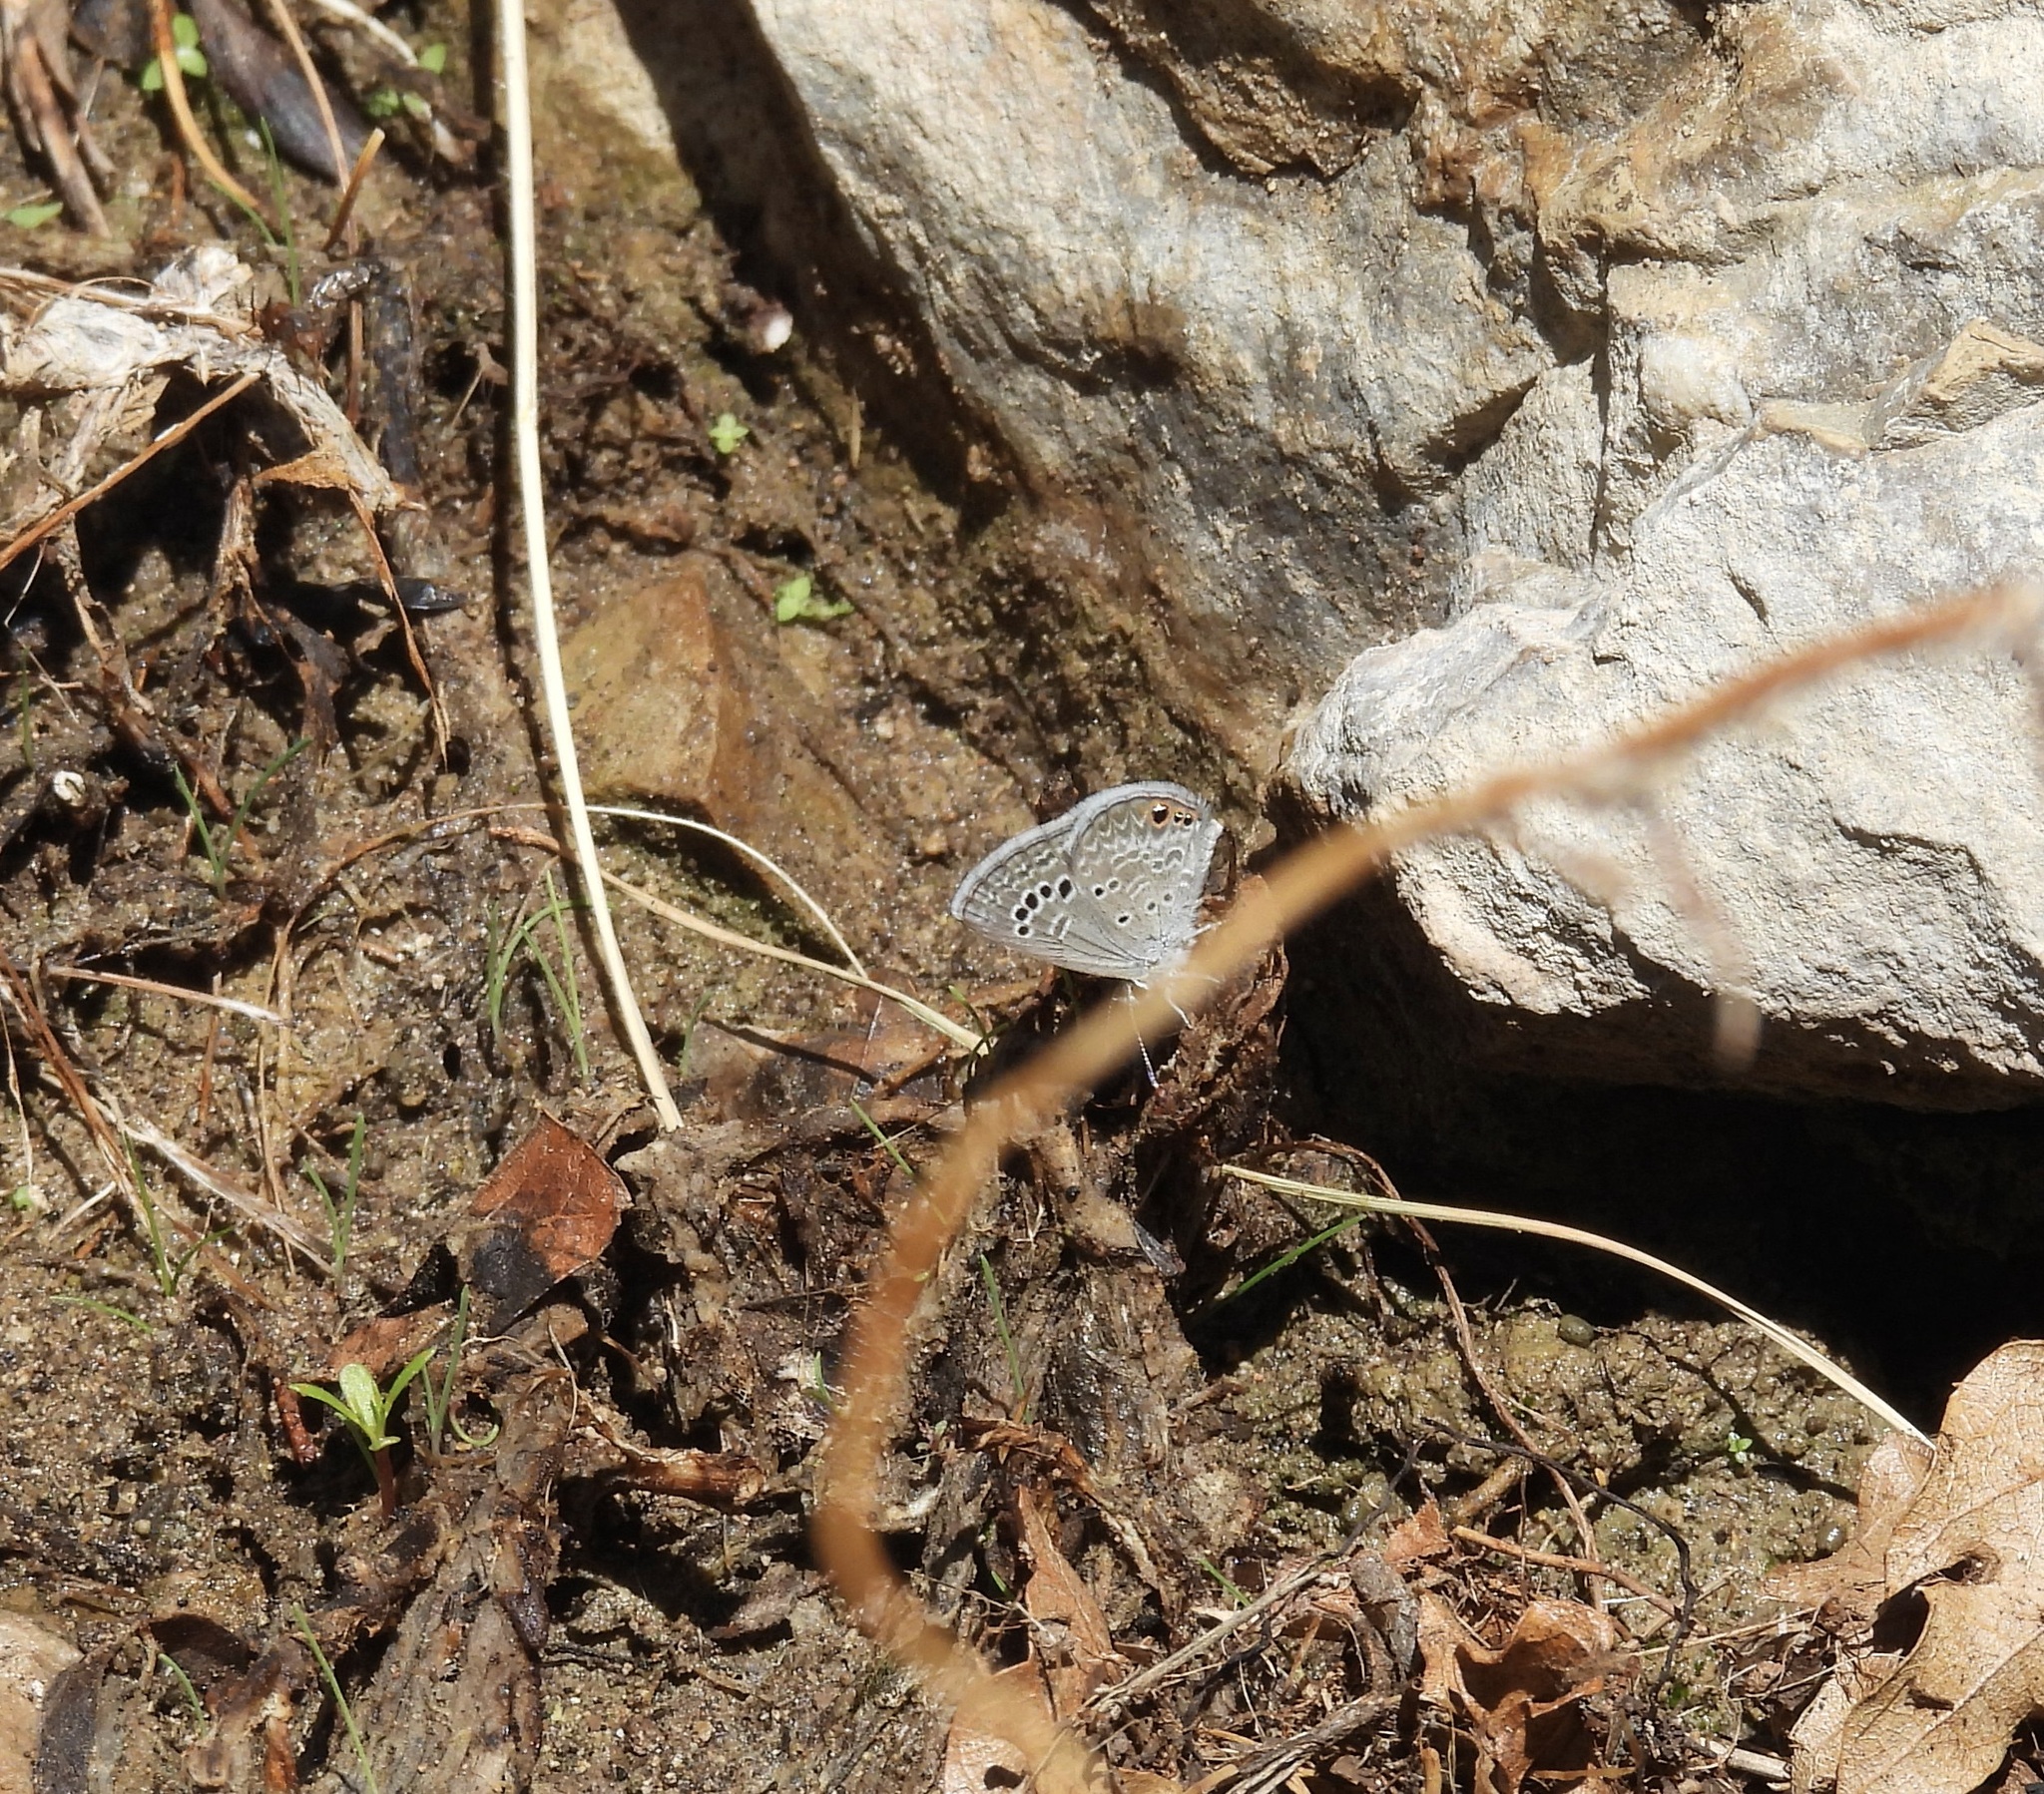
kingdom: Animalia
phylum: Arthropoda
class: Insecta
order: Lepidoptera
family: Lycaenidae
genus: Echinargus
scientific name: Echinargus isola
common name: Reakirt's blue
